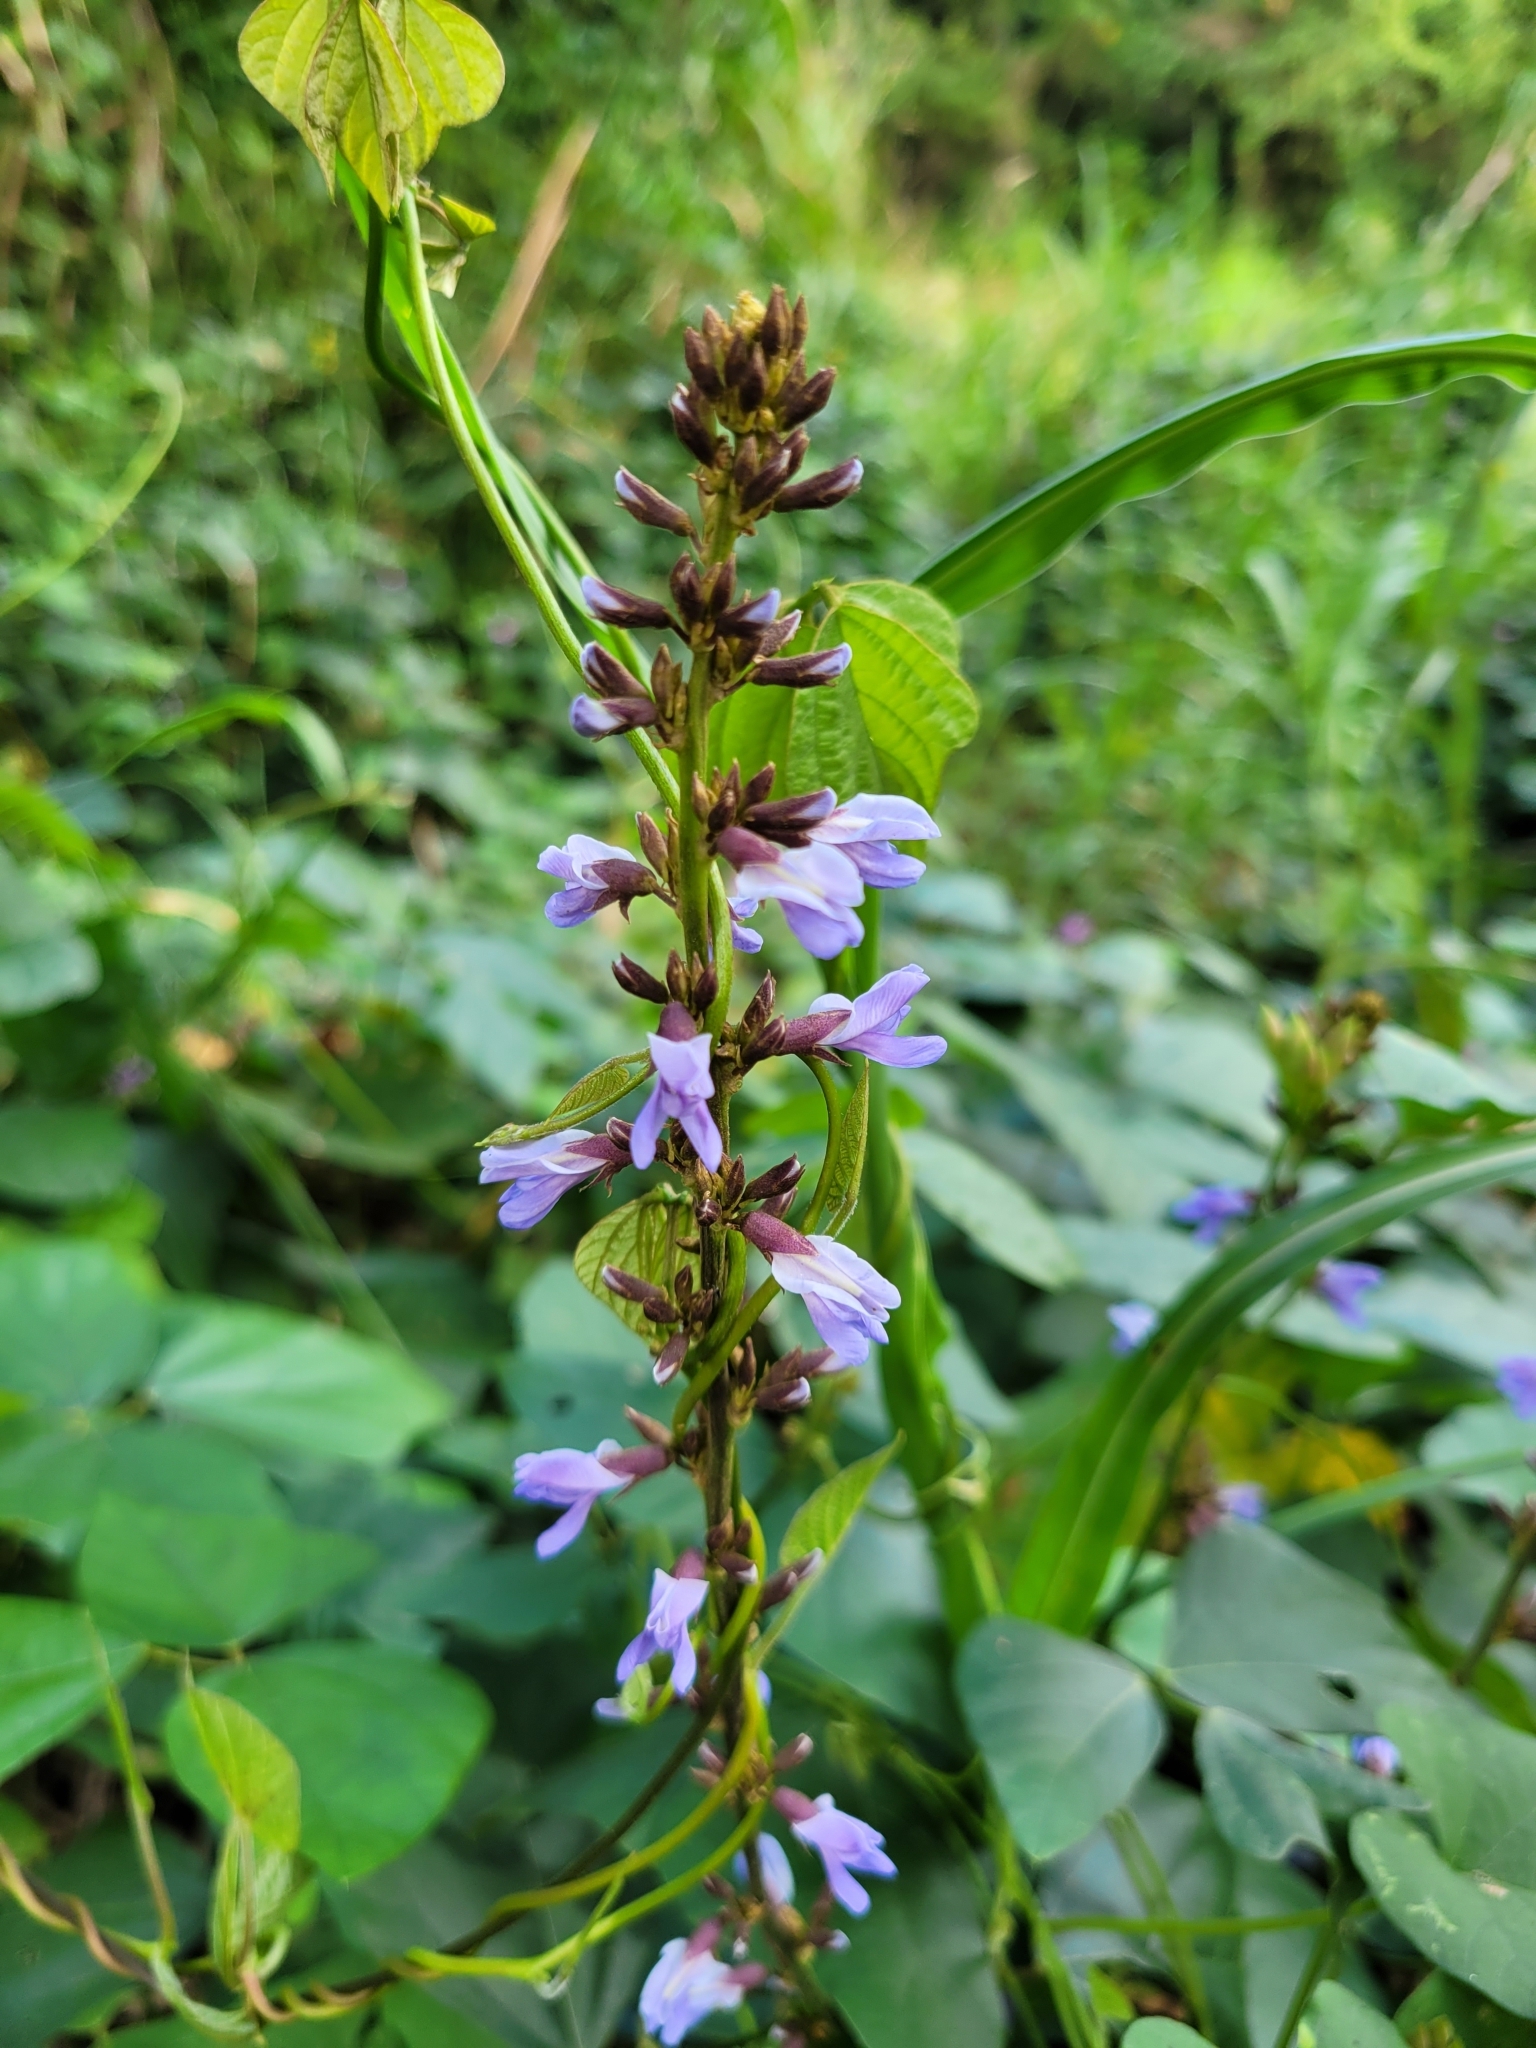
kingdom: Plantae
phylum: Tracheophyta
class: Magnoliopsida
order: Fabales
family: Fabaceae
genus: Calopogonium
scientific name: Calopogonium caeruleum
